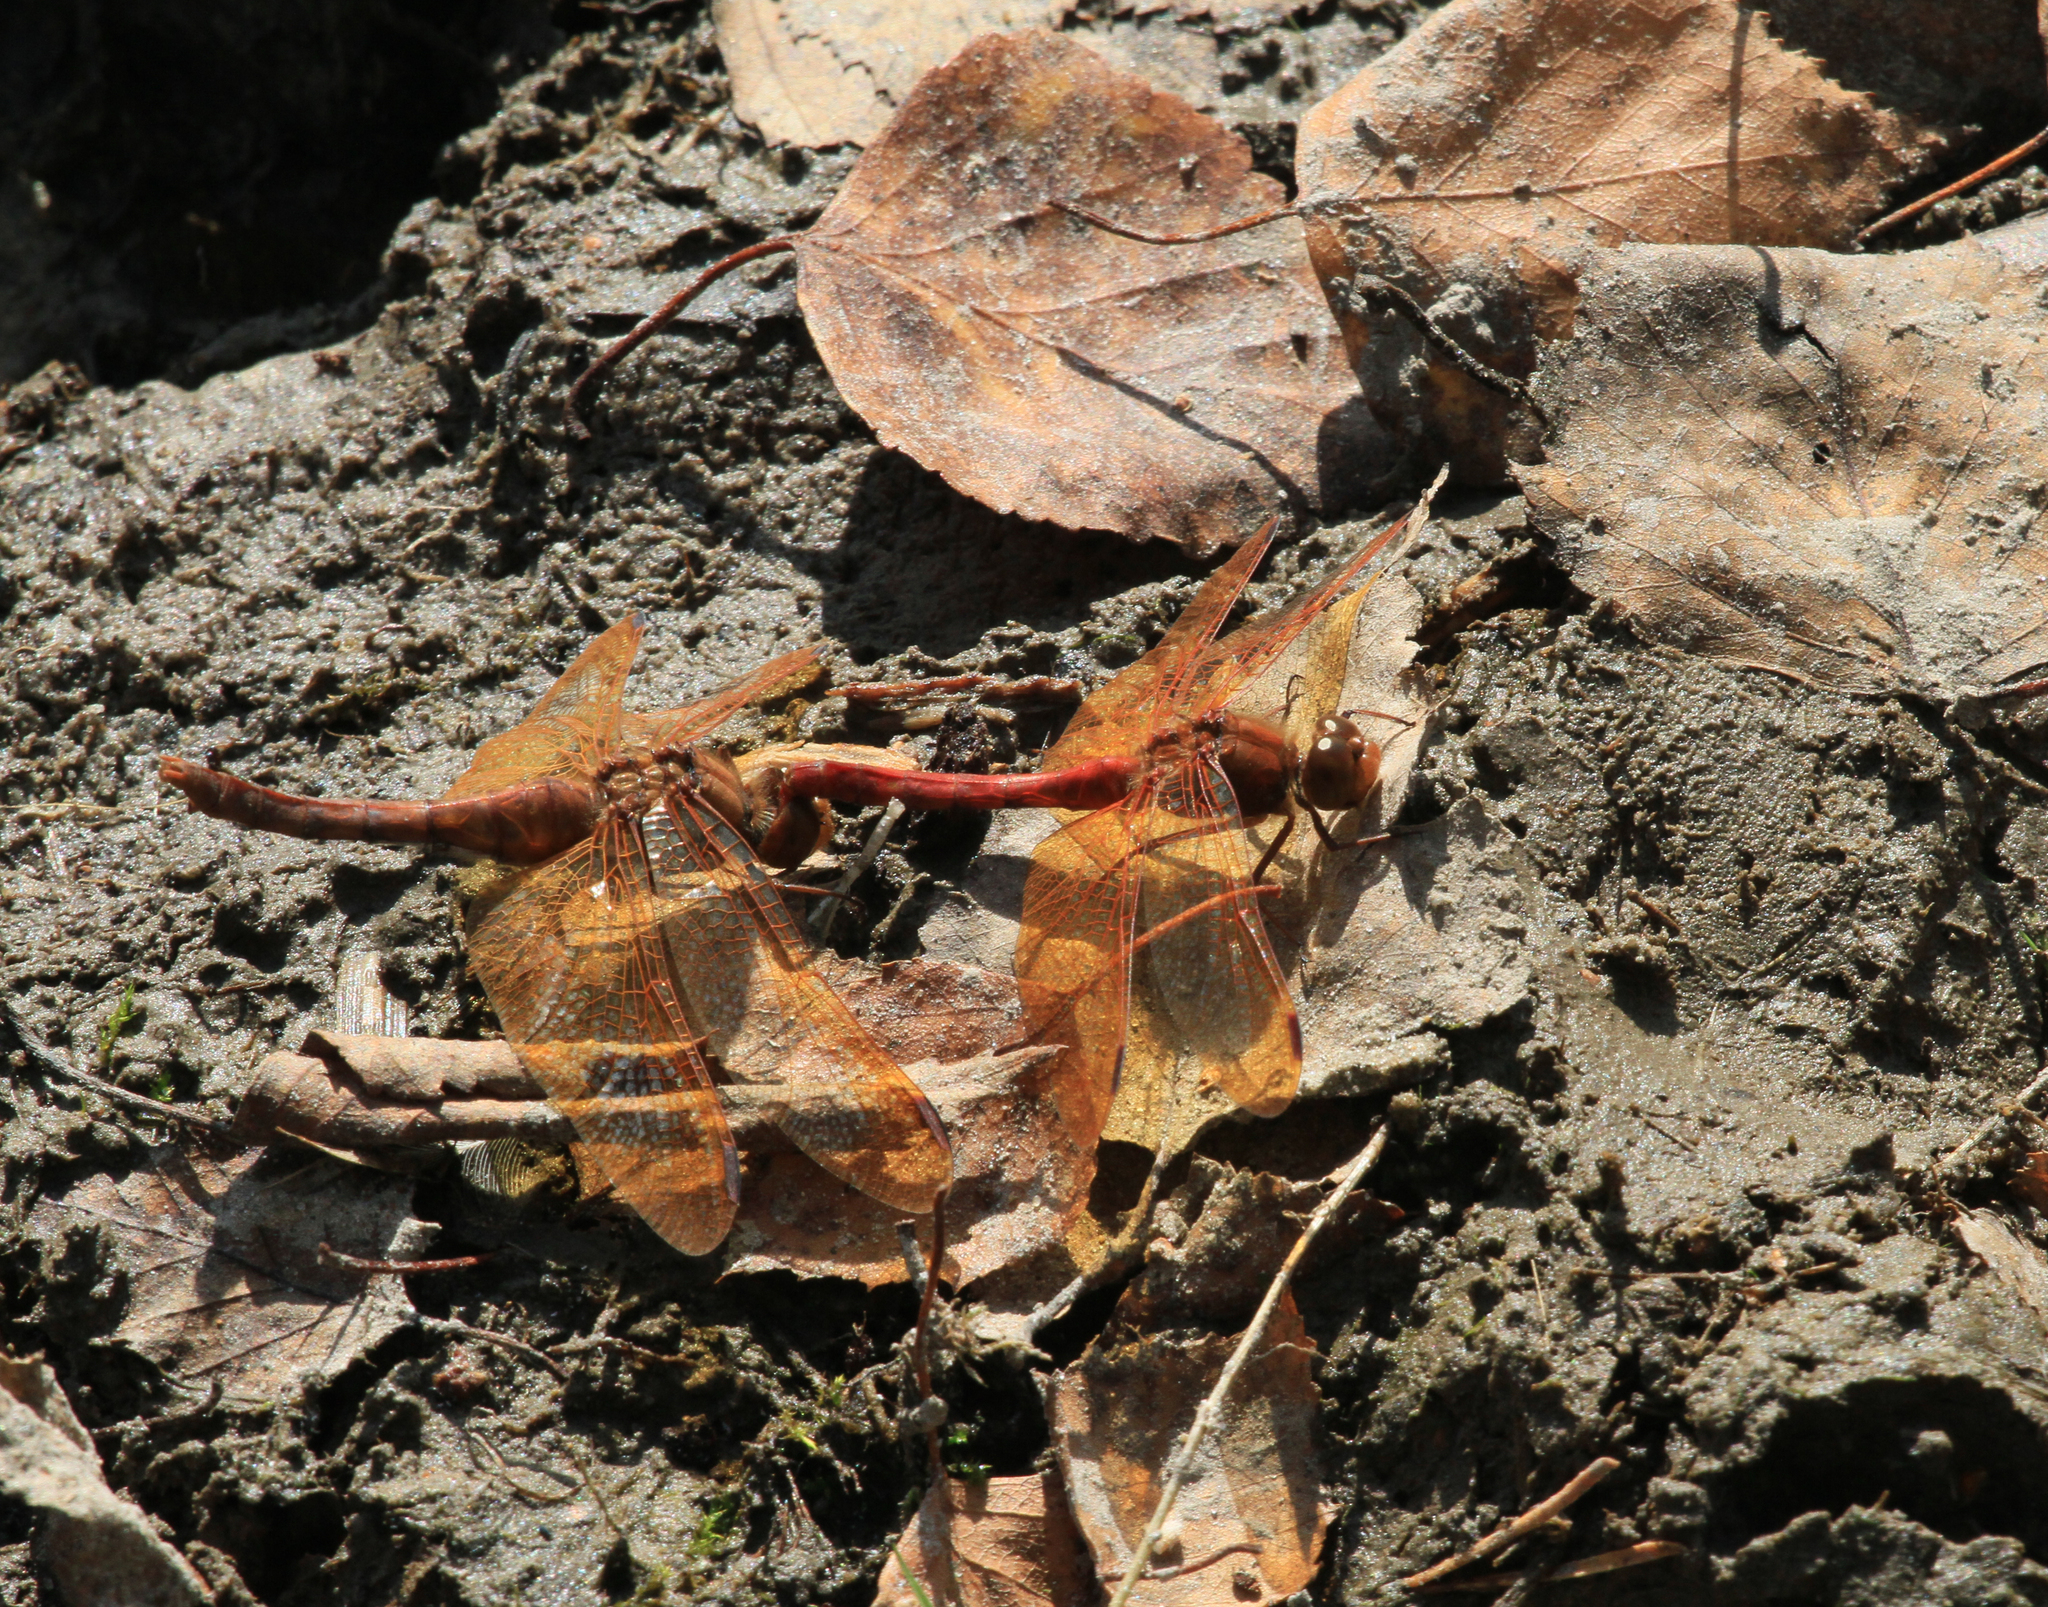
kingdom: Animalia
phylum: Arthropoda
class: Insecta
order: Odonata
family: Libellulidae
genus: Sympetrum
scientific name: Sympetrum croceolum
